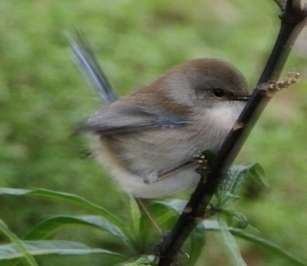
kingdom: Animalia
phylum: Chordata
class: Aves
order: Passeriformes
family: Maluridae
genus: Malurus
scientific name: Malurus cyaneus
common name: Superb fairywren
